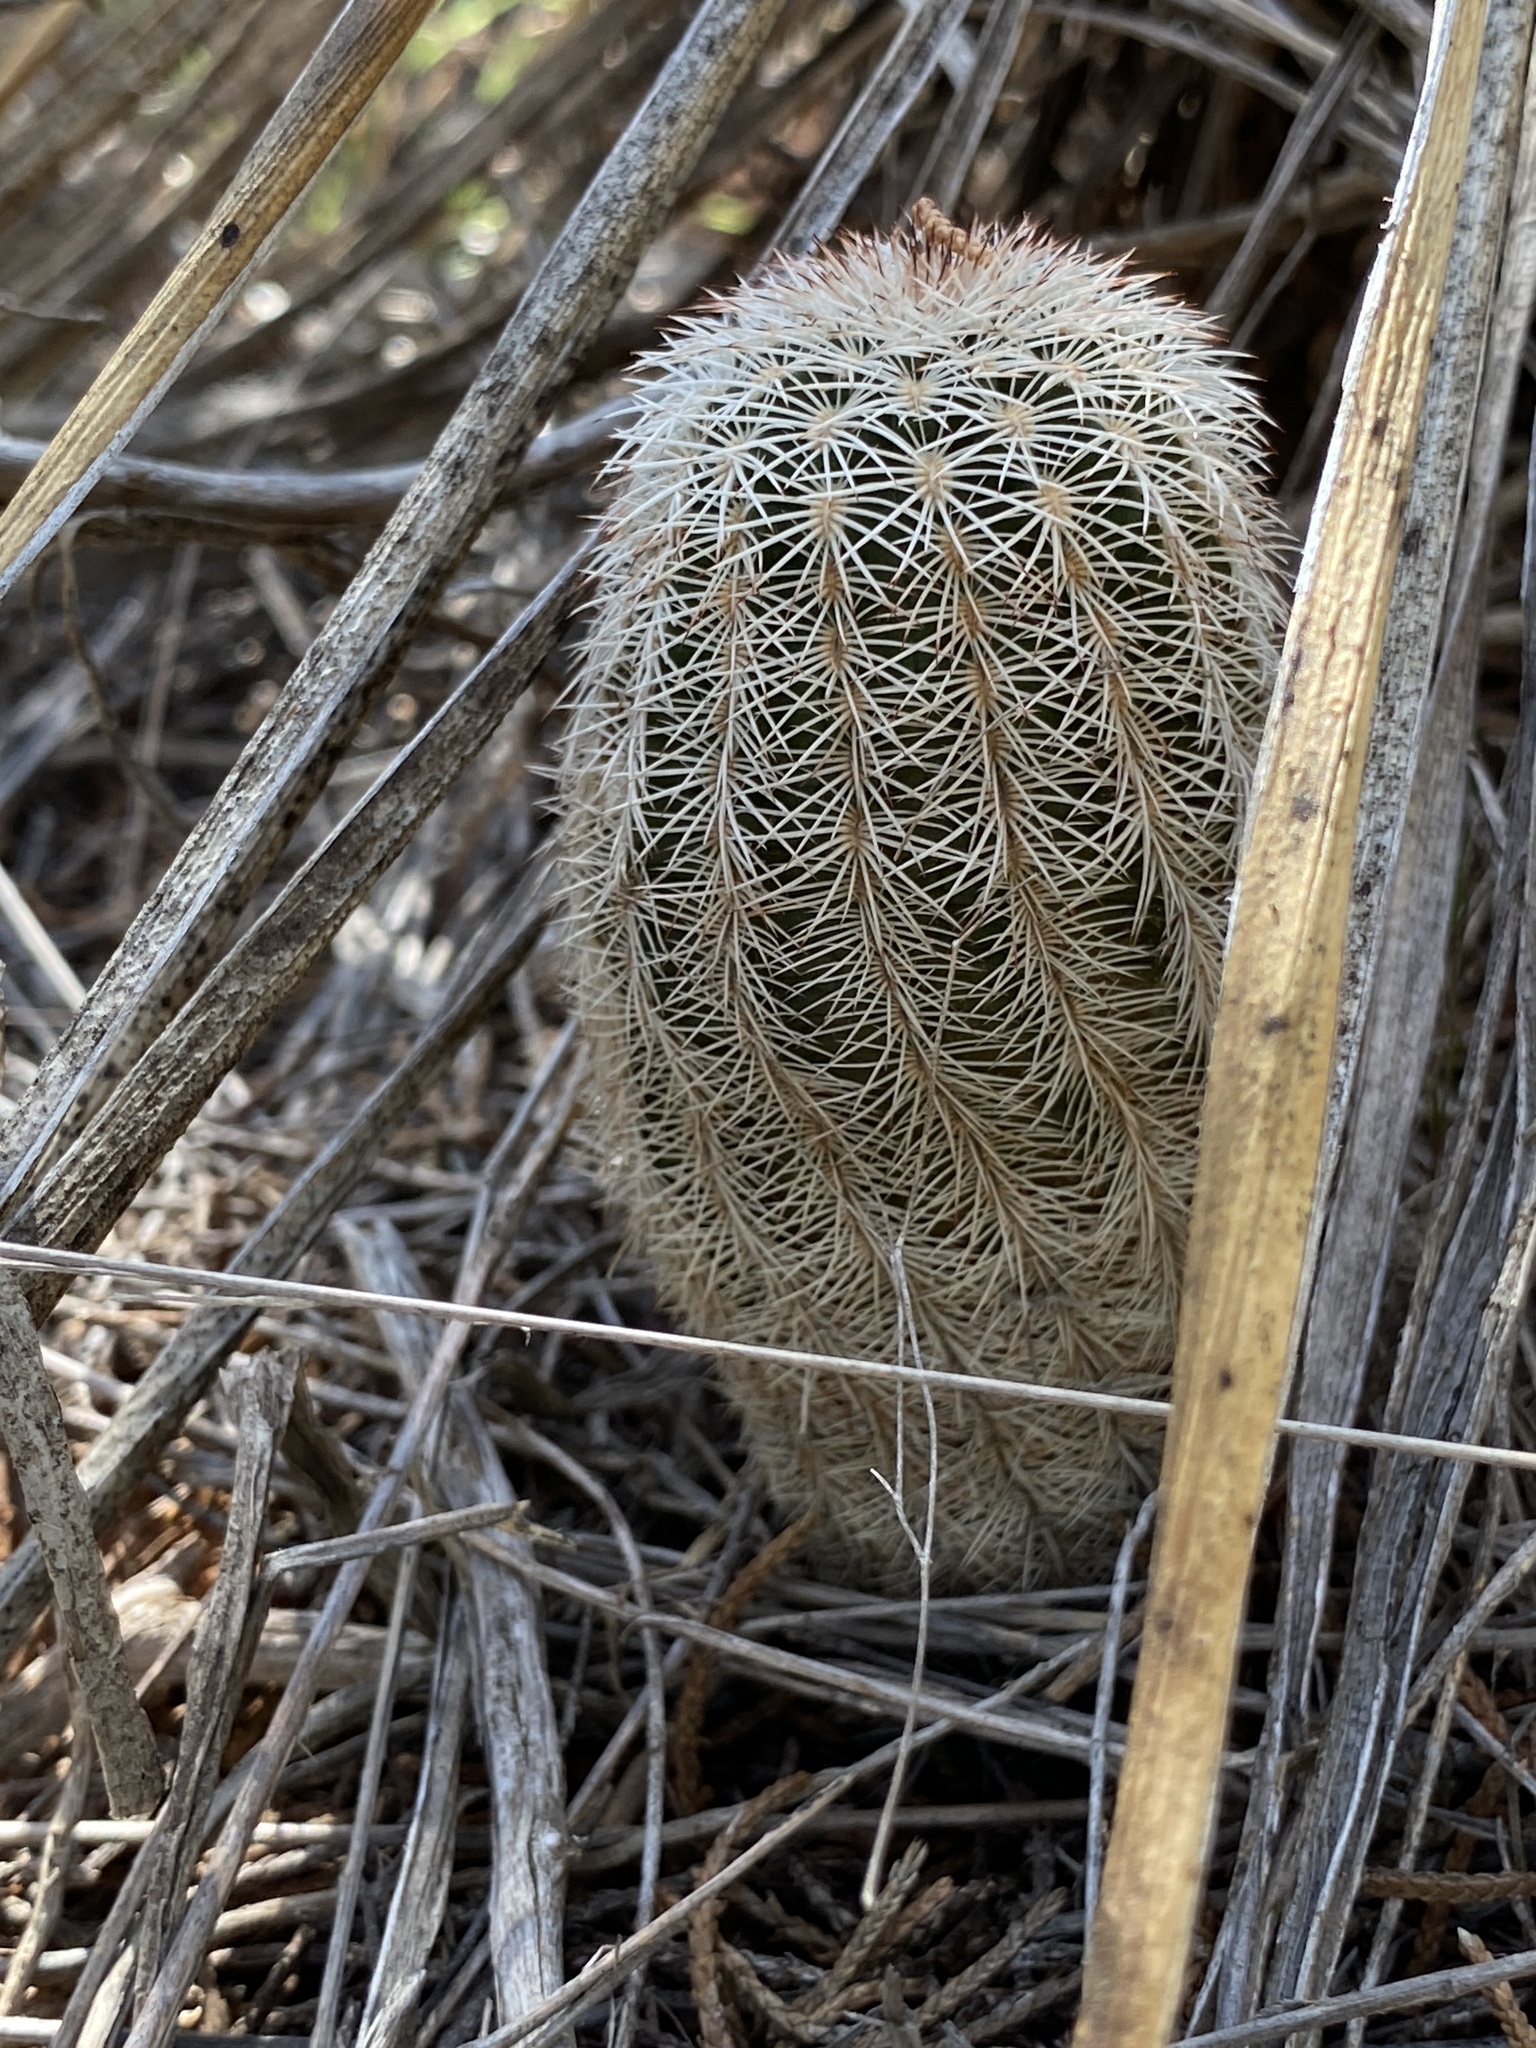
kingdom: Plantae
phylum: Tracheophyta
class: Magnoliopsida
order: Caryophyllales
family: Cactaceae
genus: Echinocereus
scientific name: Echinocereus reichenbachii
